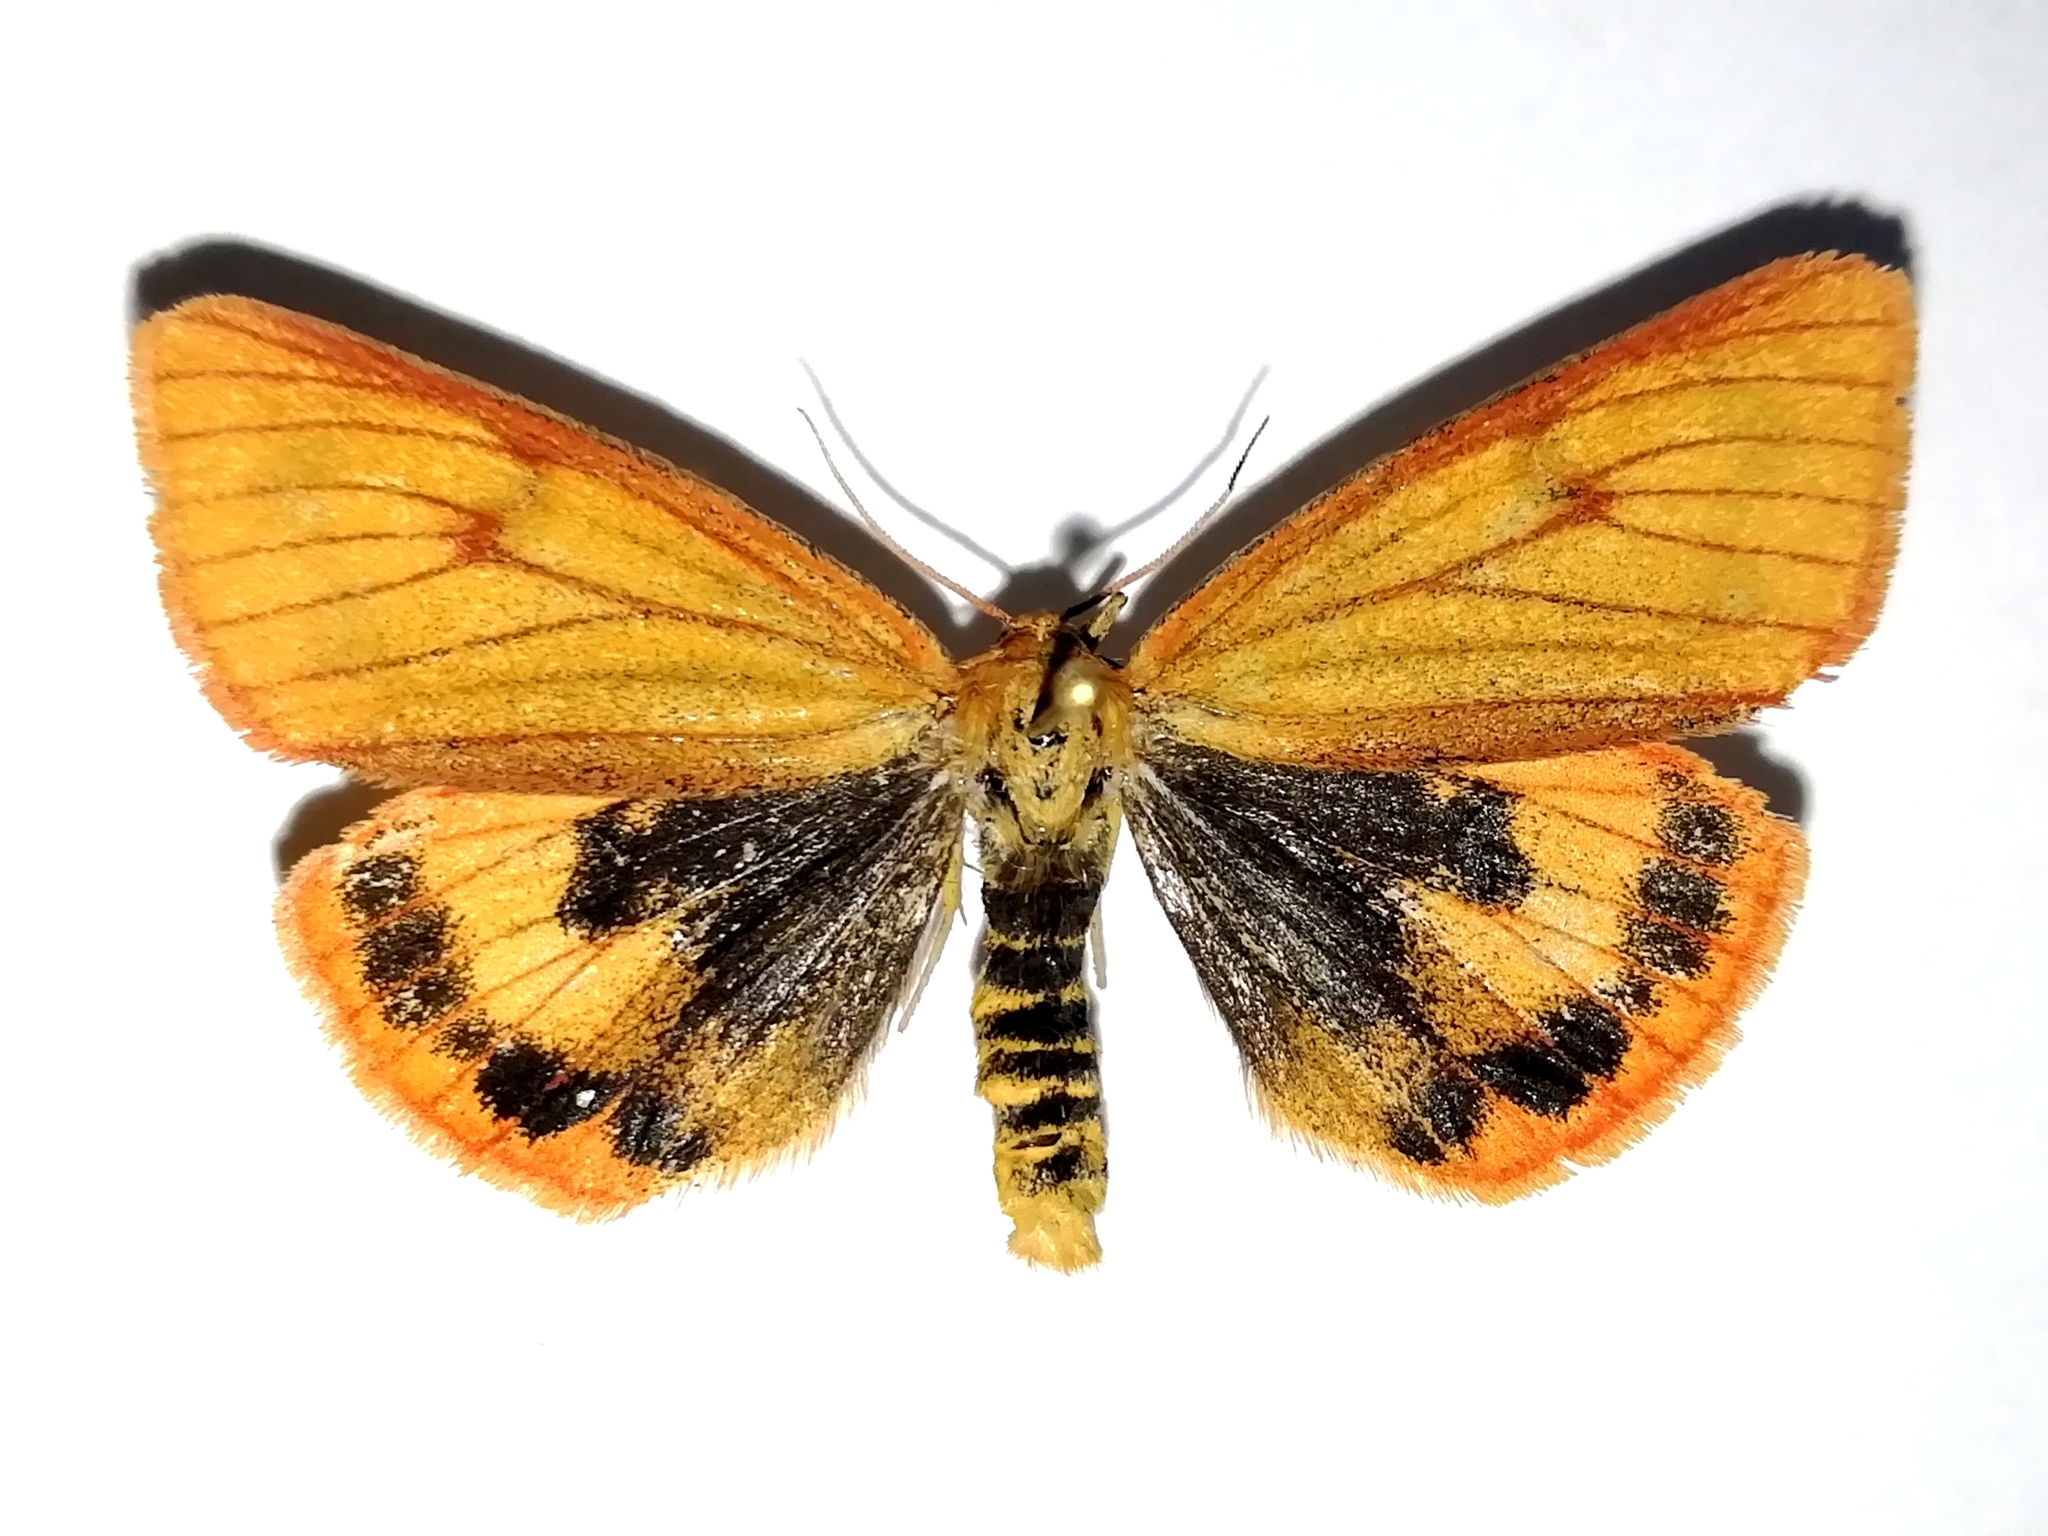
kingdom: Animalia
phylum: Arthropoda
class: Insecta
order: Lepidoptera
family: Erebidae
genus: Diacrisia
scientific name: Diacrisia sannio
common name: Clouded buff
